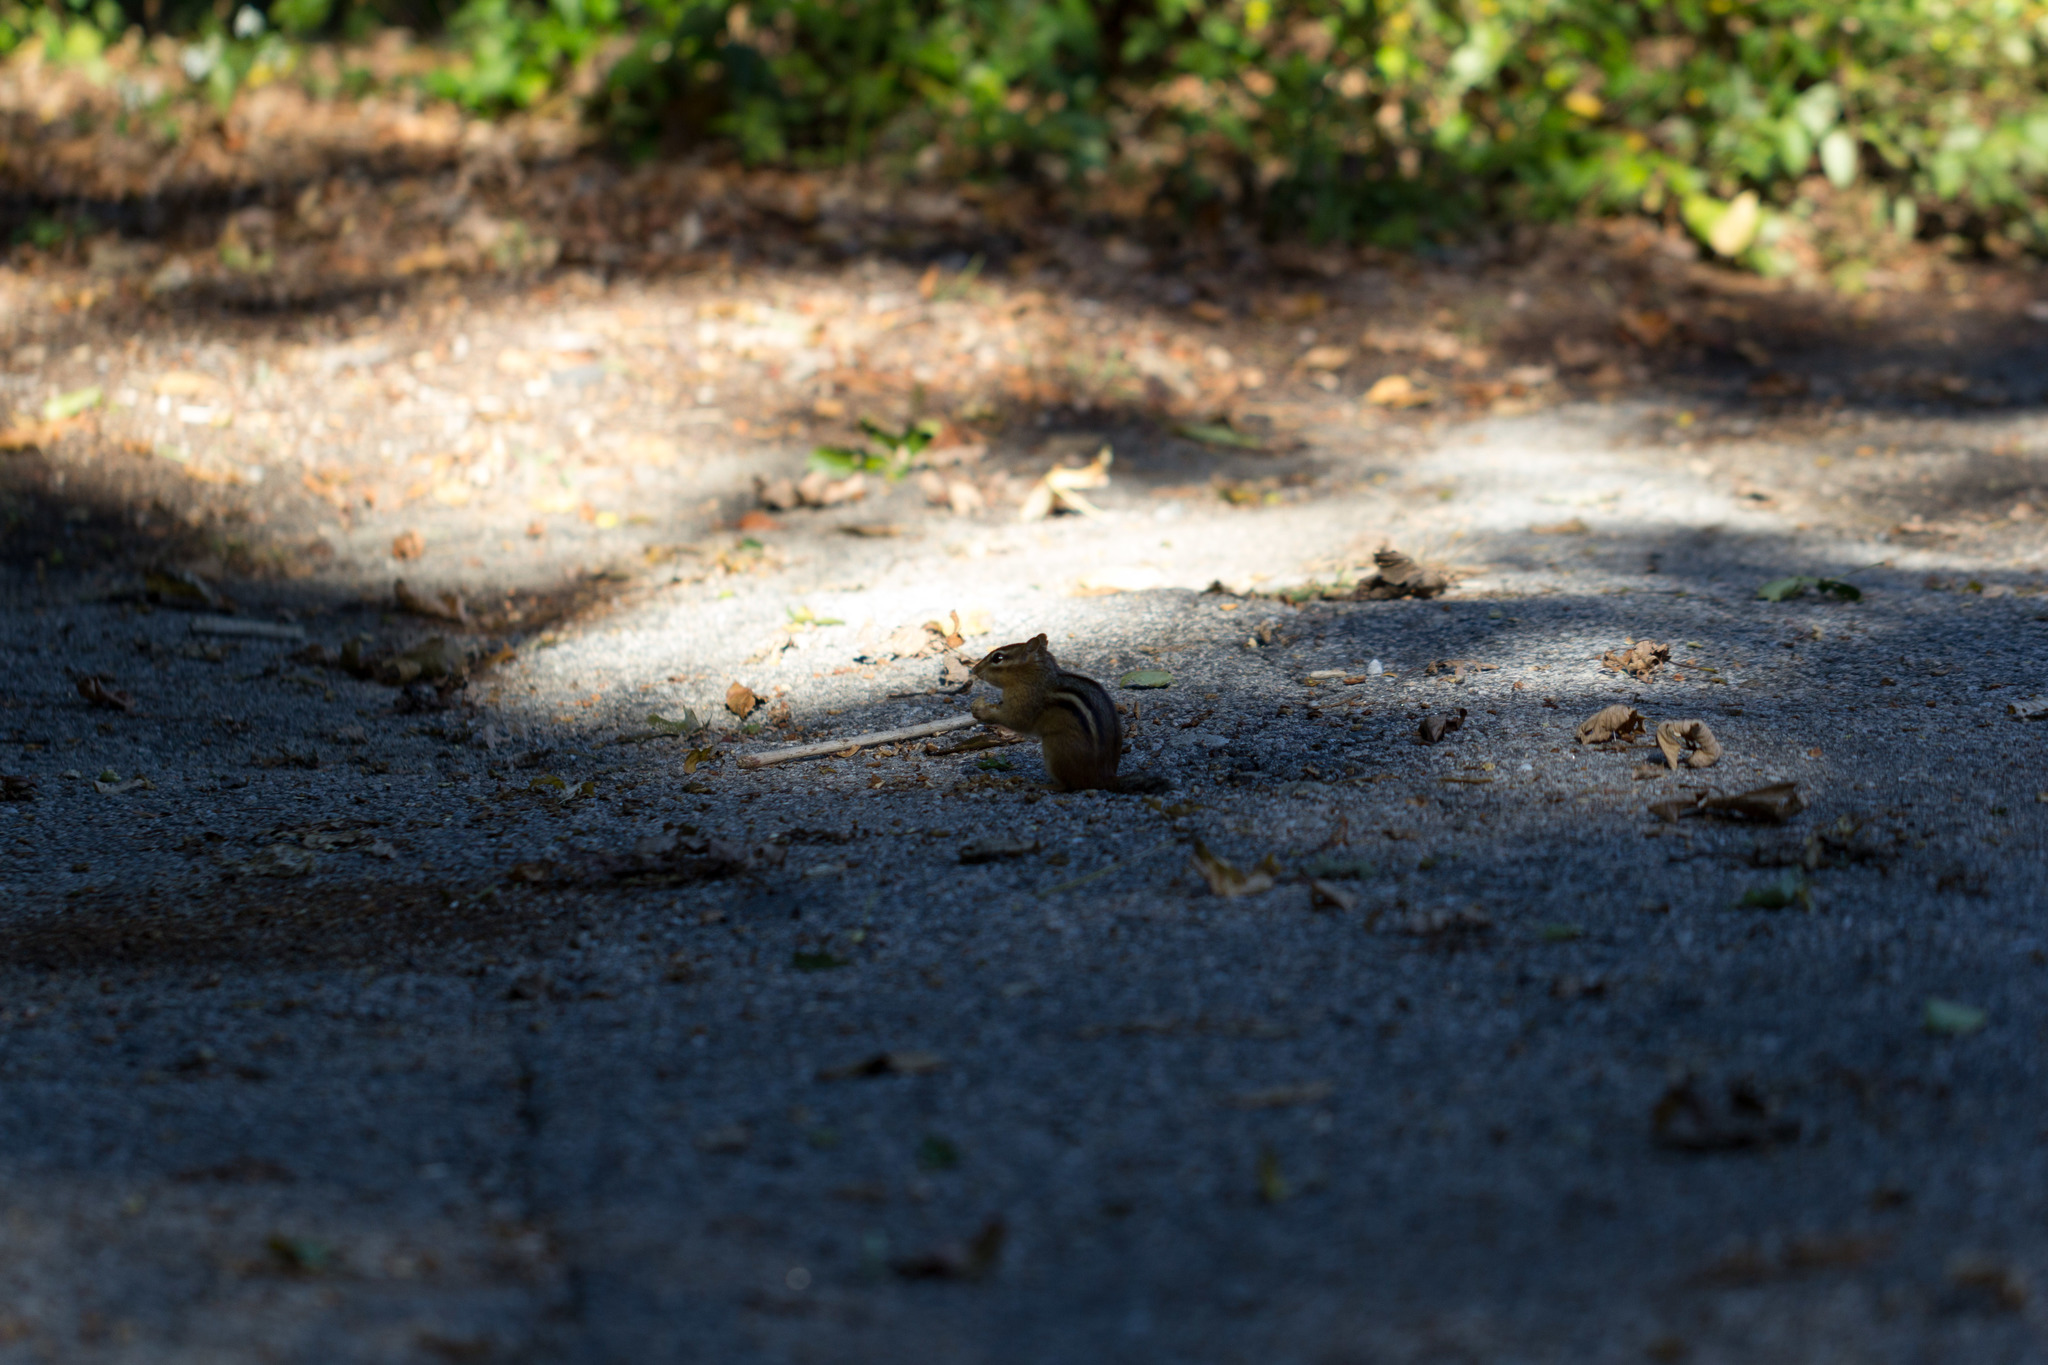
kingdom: Animalia
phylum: Chordata
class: Mammalia
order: Rodentia
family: Sciuridae
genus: Tamias
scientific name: Tamias striatus
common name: Eastern chipmunk
